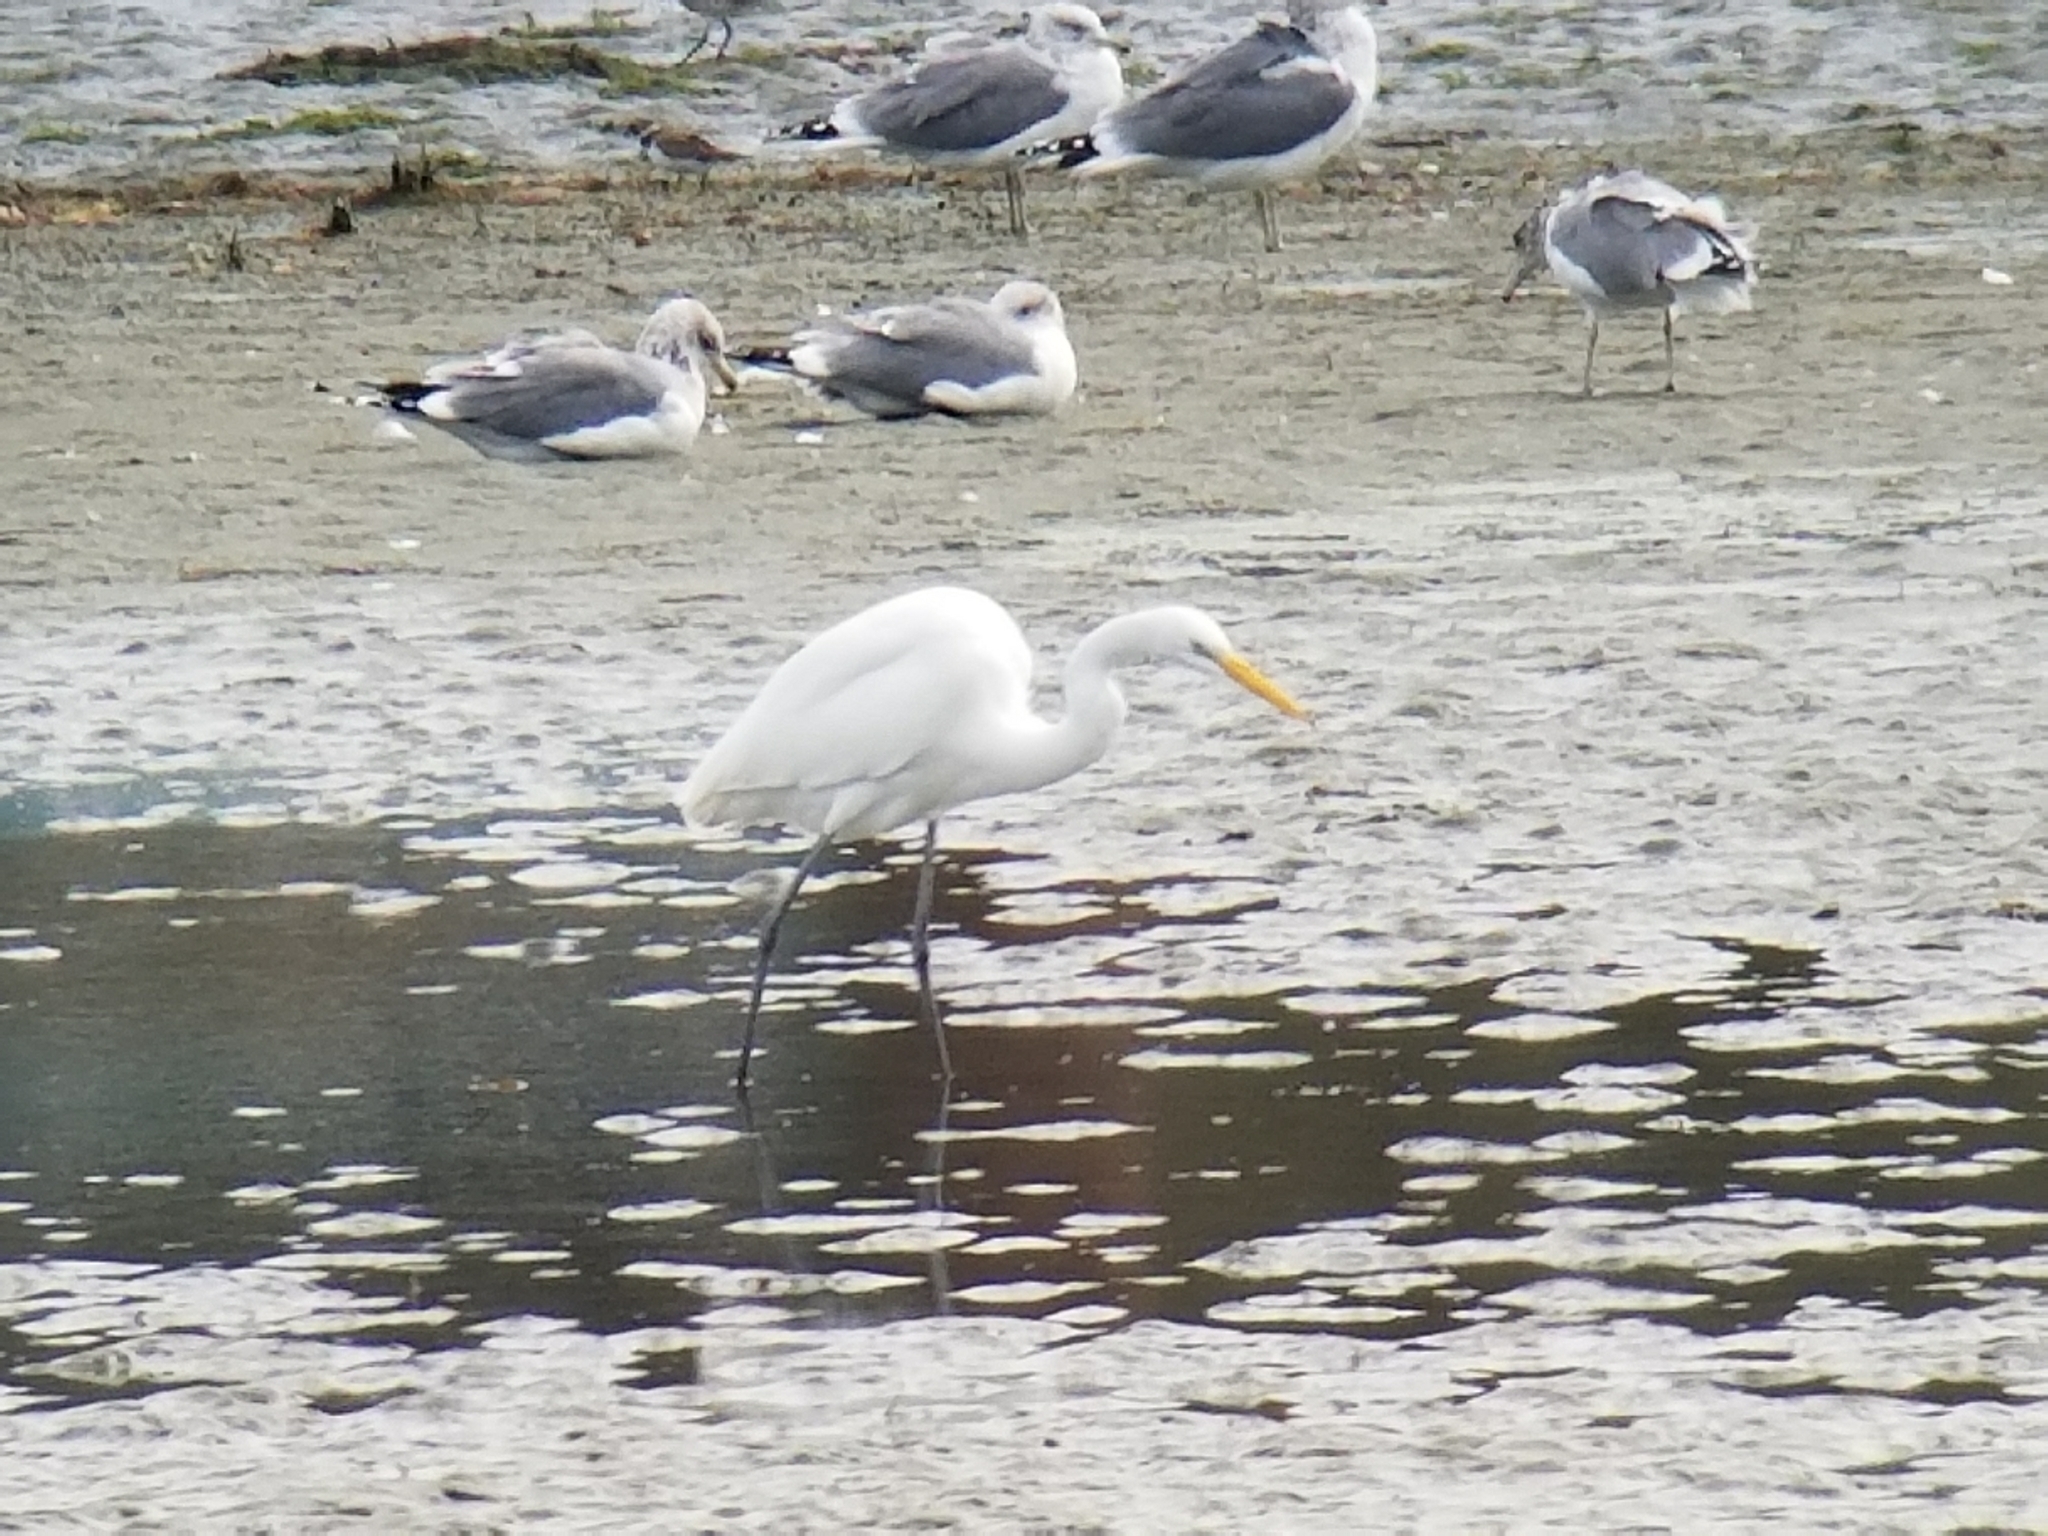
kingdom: Animalia
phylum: Chordata
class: Aves
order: Pelecaniformes
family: Ardeidae
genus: Ardea
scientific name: Ardea alba
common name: Great egret
